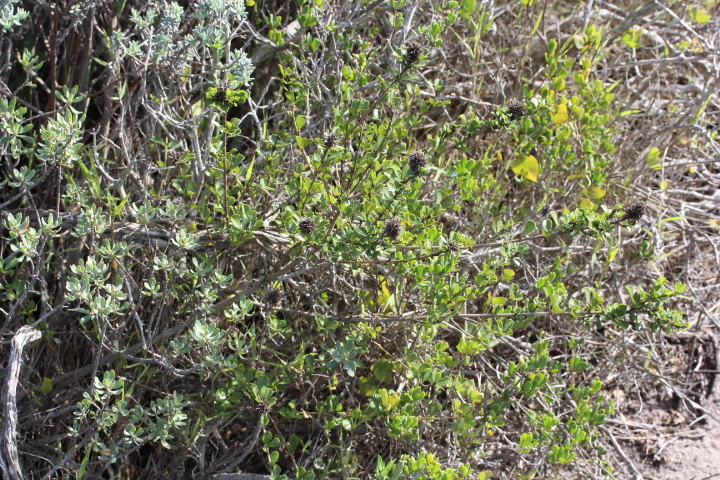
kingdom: Plantae
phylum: Tracheophyta
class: Magnoliopsida
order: Fabales
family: Fabaceae
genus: Psoralea
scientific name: Psoralea bracteolata
